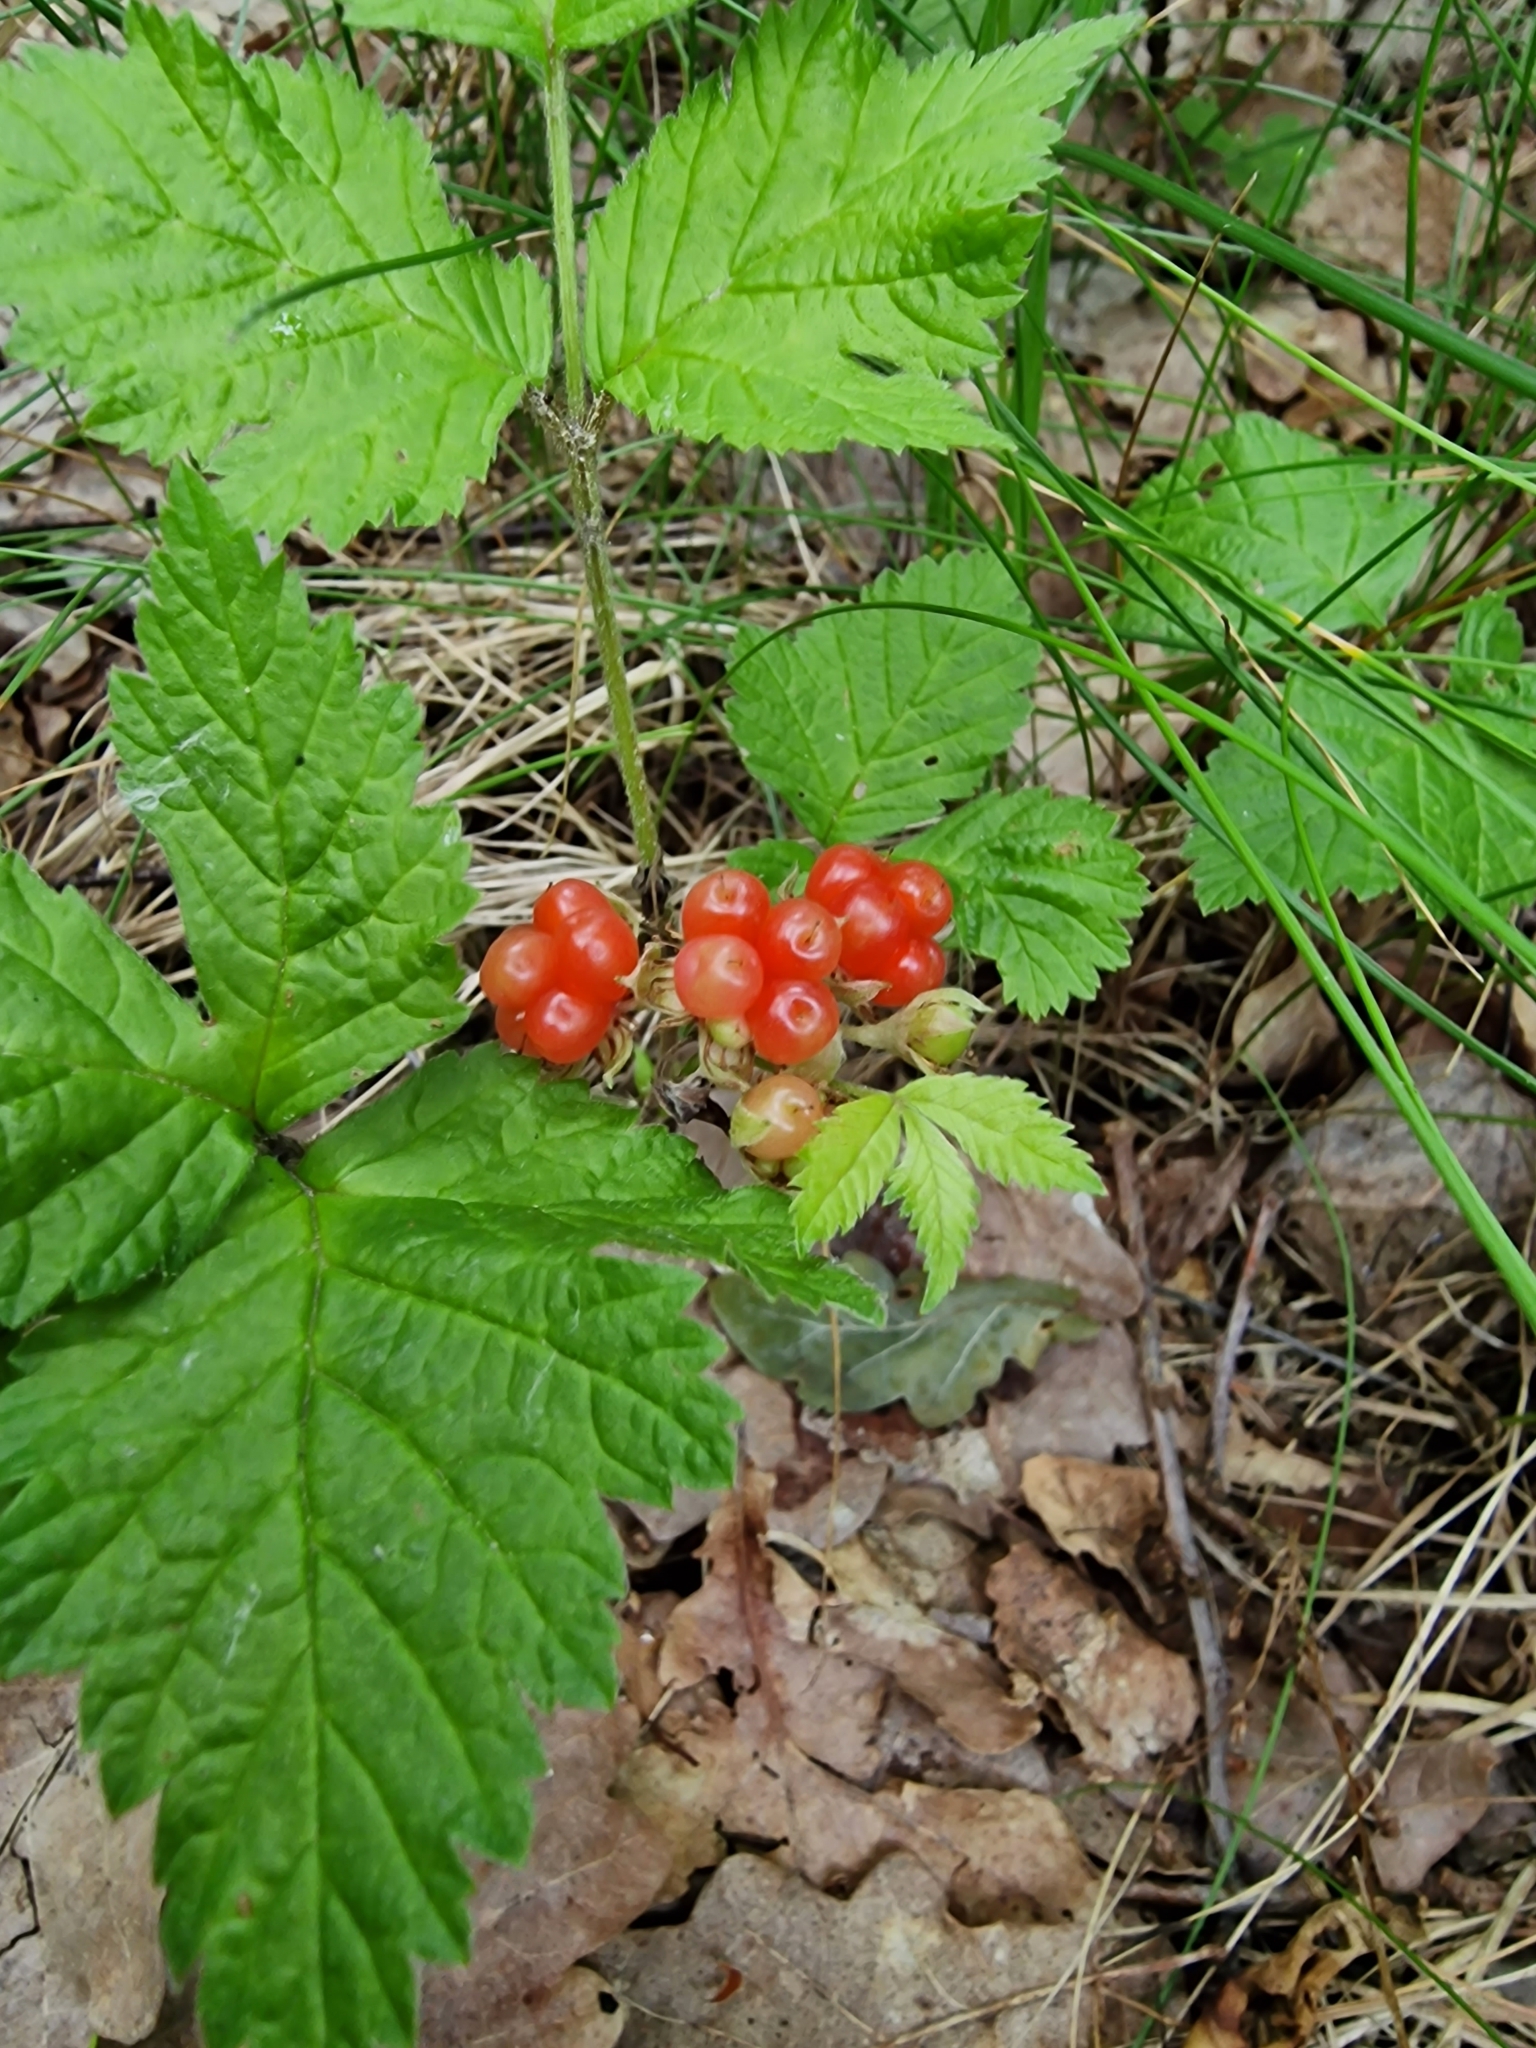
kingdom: Plantae
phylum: Tracheophyta
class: Magnoliopsida
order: Rosales
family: Rosaceae
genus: Rubus
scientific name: Rubus saxatilis
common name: Stone bramble
